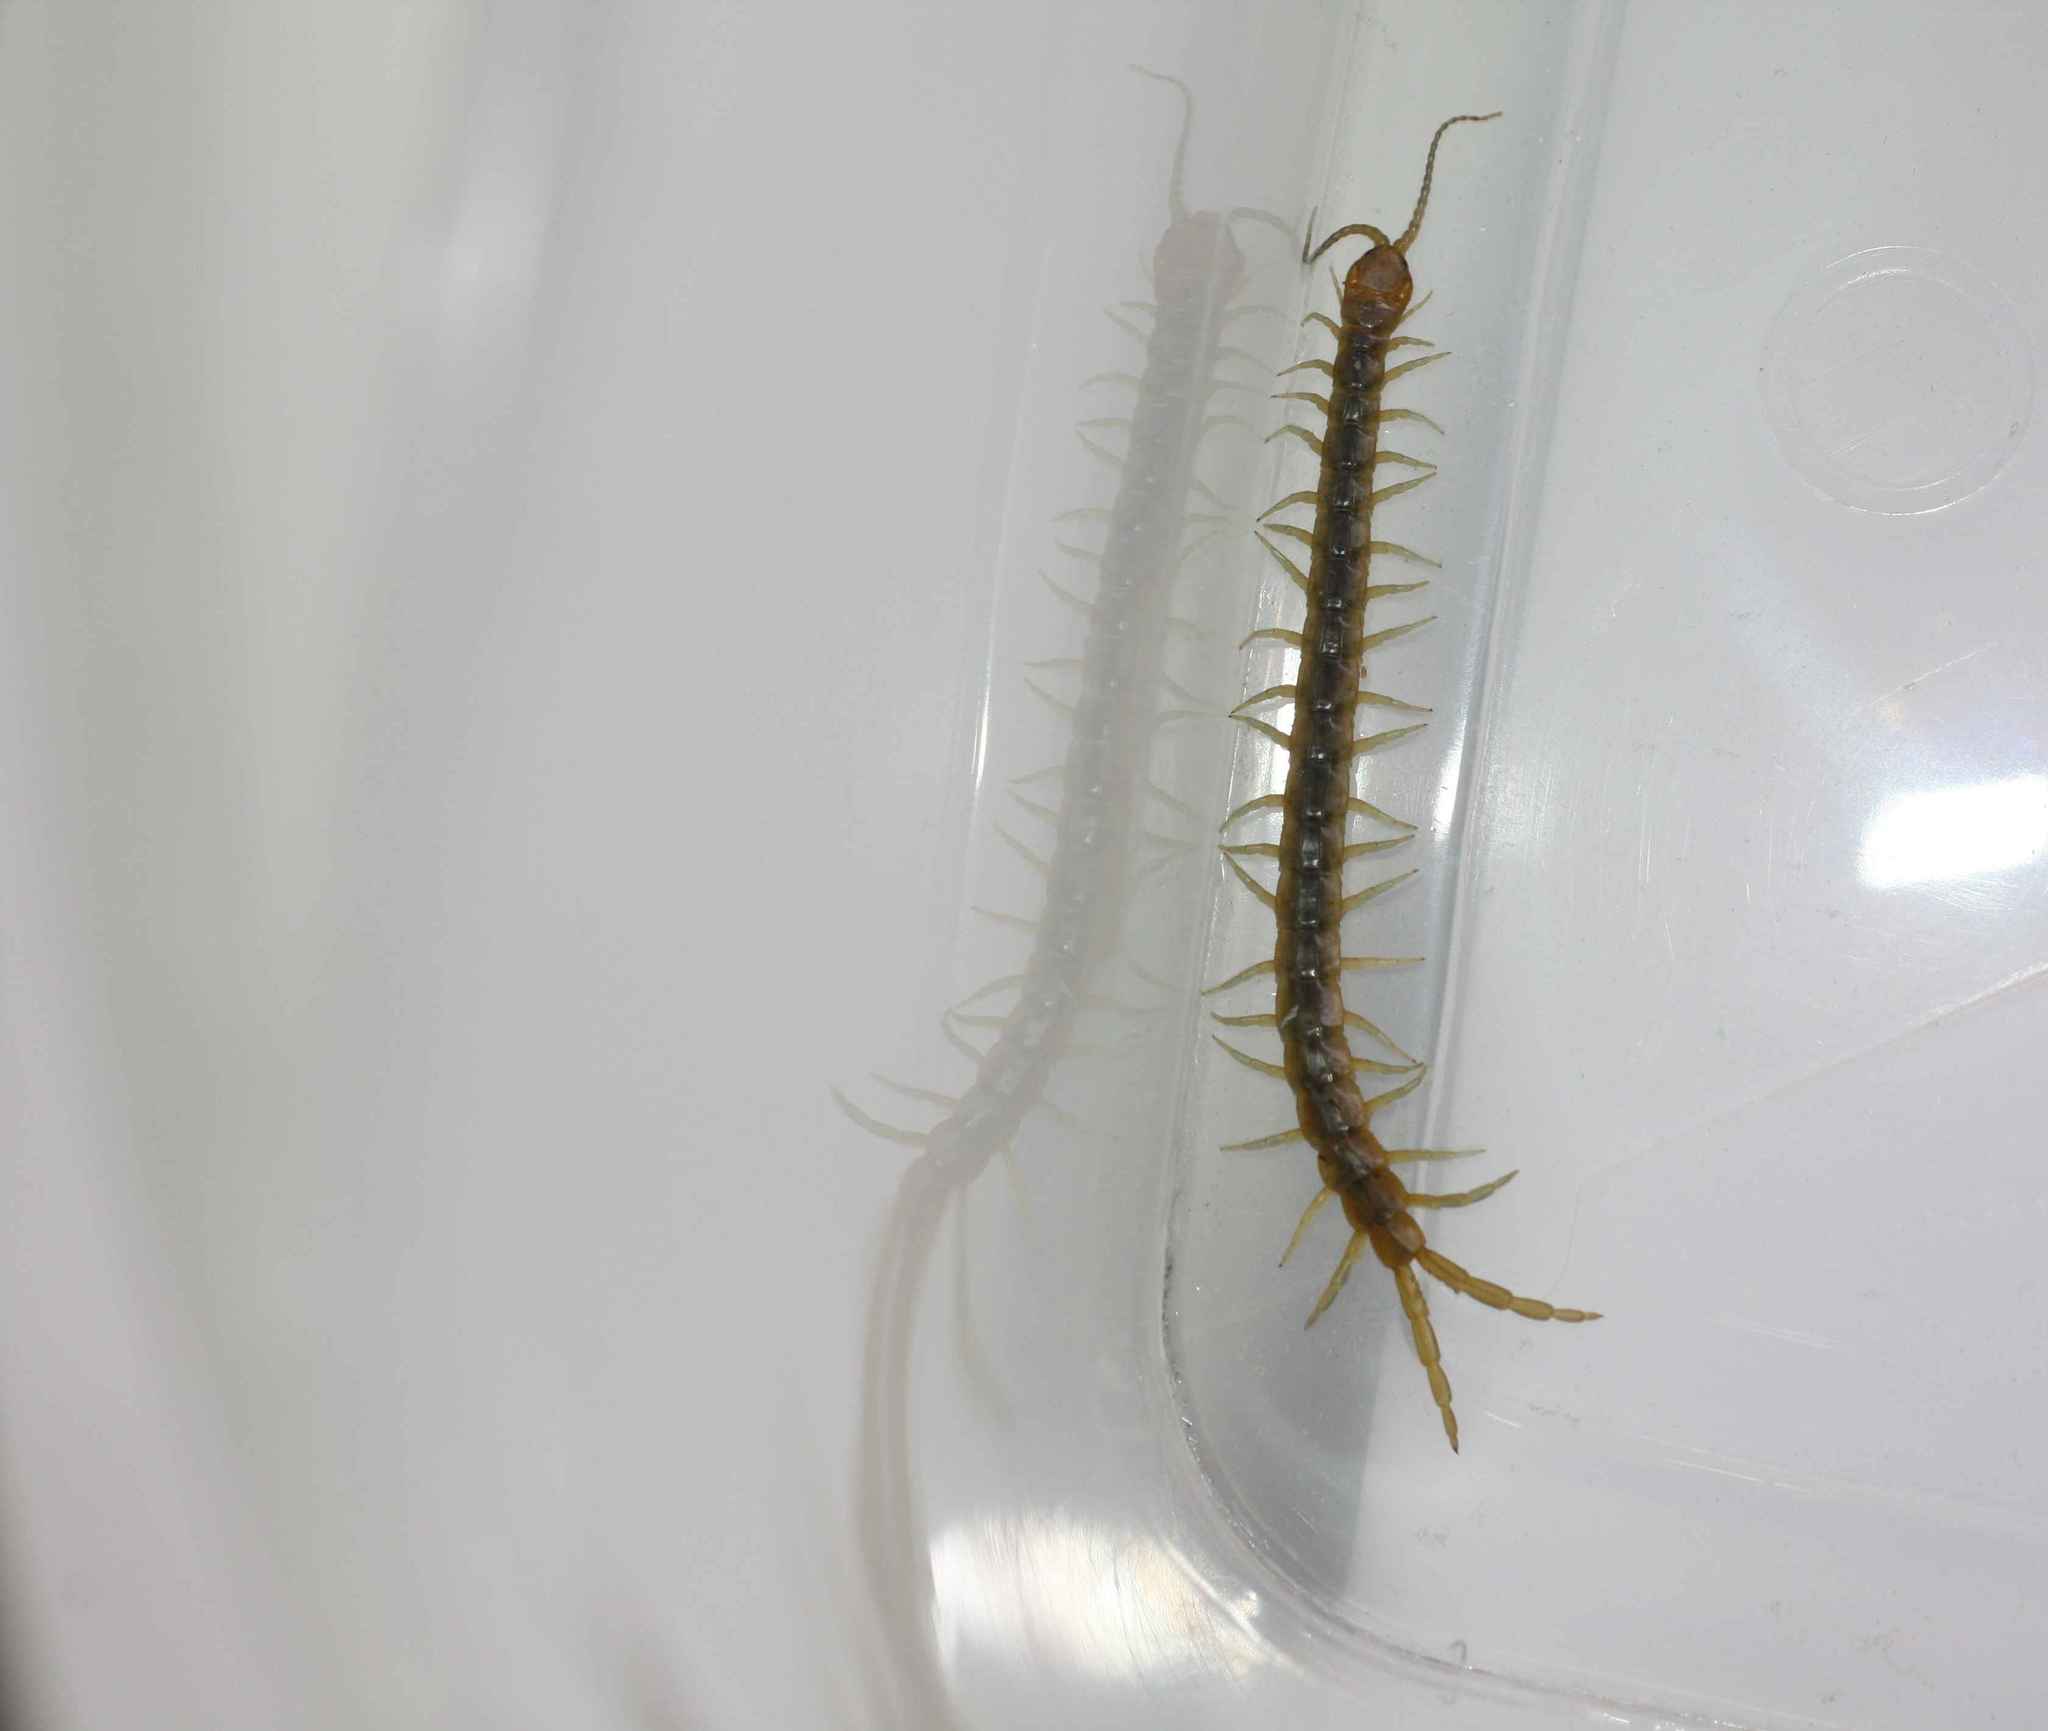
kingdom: Animalia
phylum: Arthropoda
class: Chilopoda
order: Scolopendromorpha
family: Scolopendridae
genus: Scolopendra
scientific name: Scolopendra canidens
